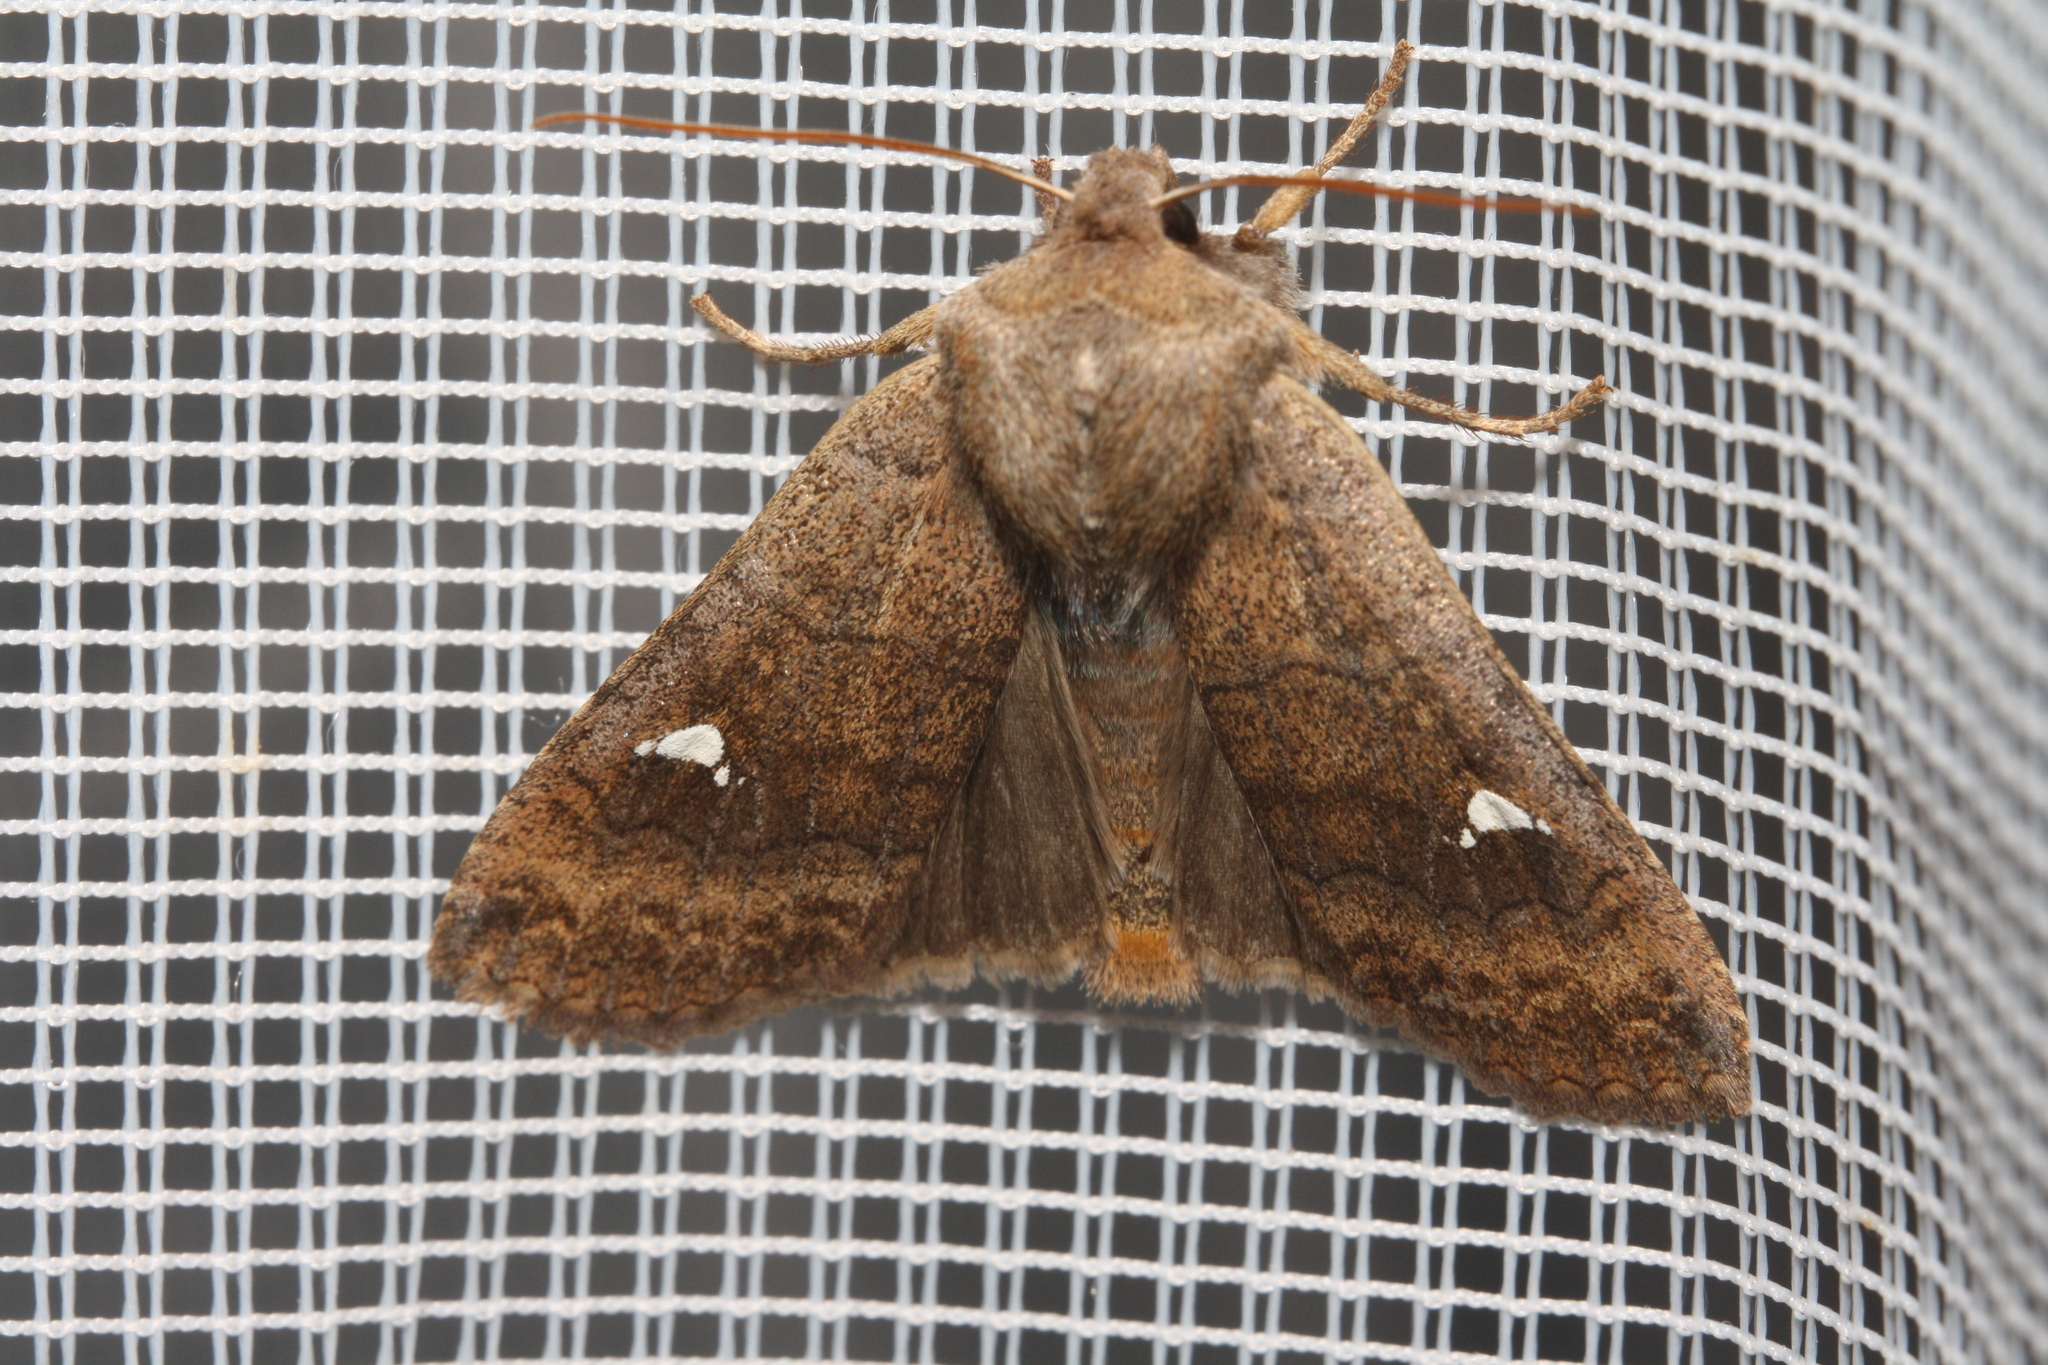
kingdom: Animalia
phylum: Arthropoda
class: Insecta
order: Lepidoptera
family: Noctuidae
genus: Eupsilia
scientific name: Eupsilia transversa
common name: Satellite
